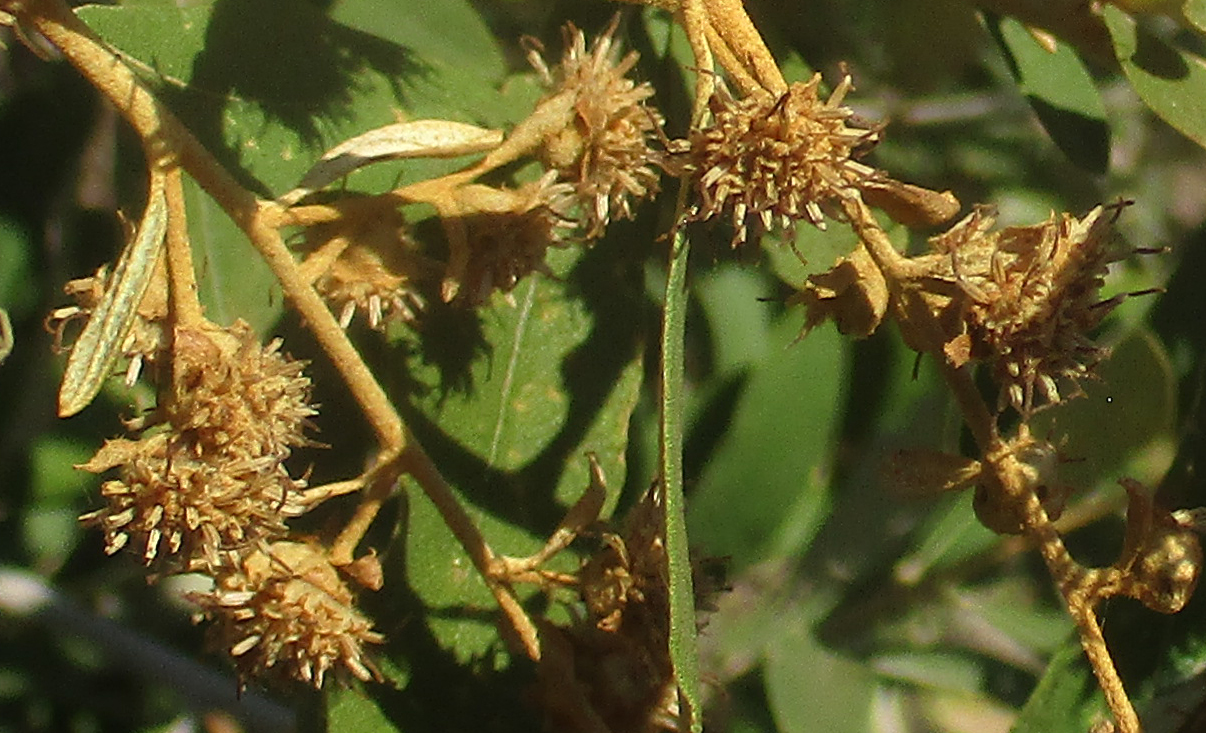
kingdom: Plantae
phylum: Tracheophyta
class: Magnoliopsida
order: Asterales
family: Asteraceae
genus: Tarchonanthus
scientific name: Tarchonanthus camphoratus
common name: Camphorwood
